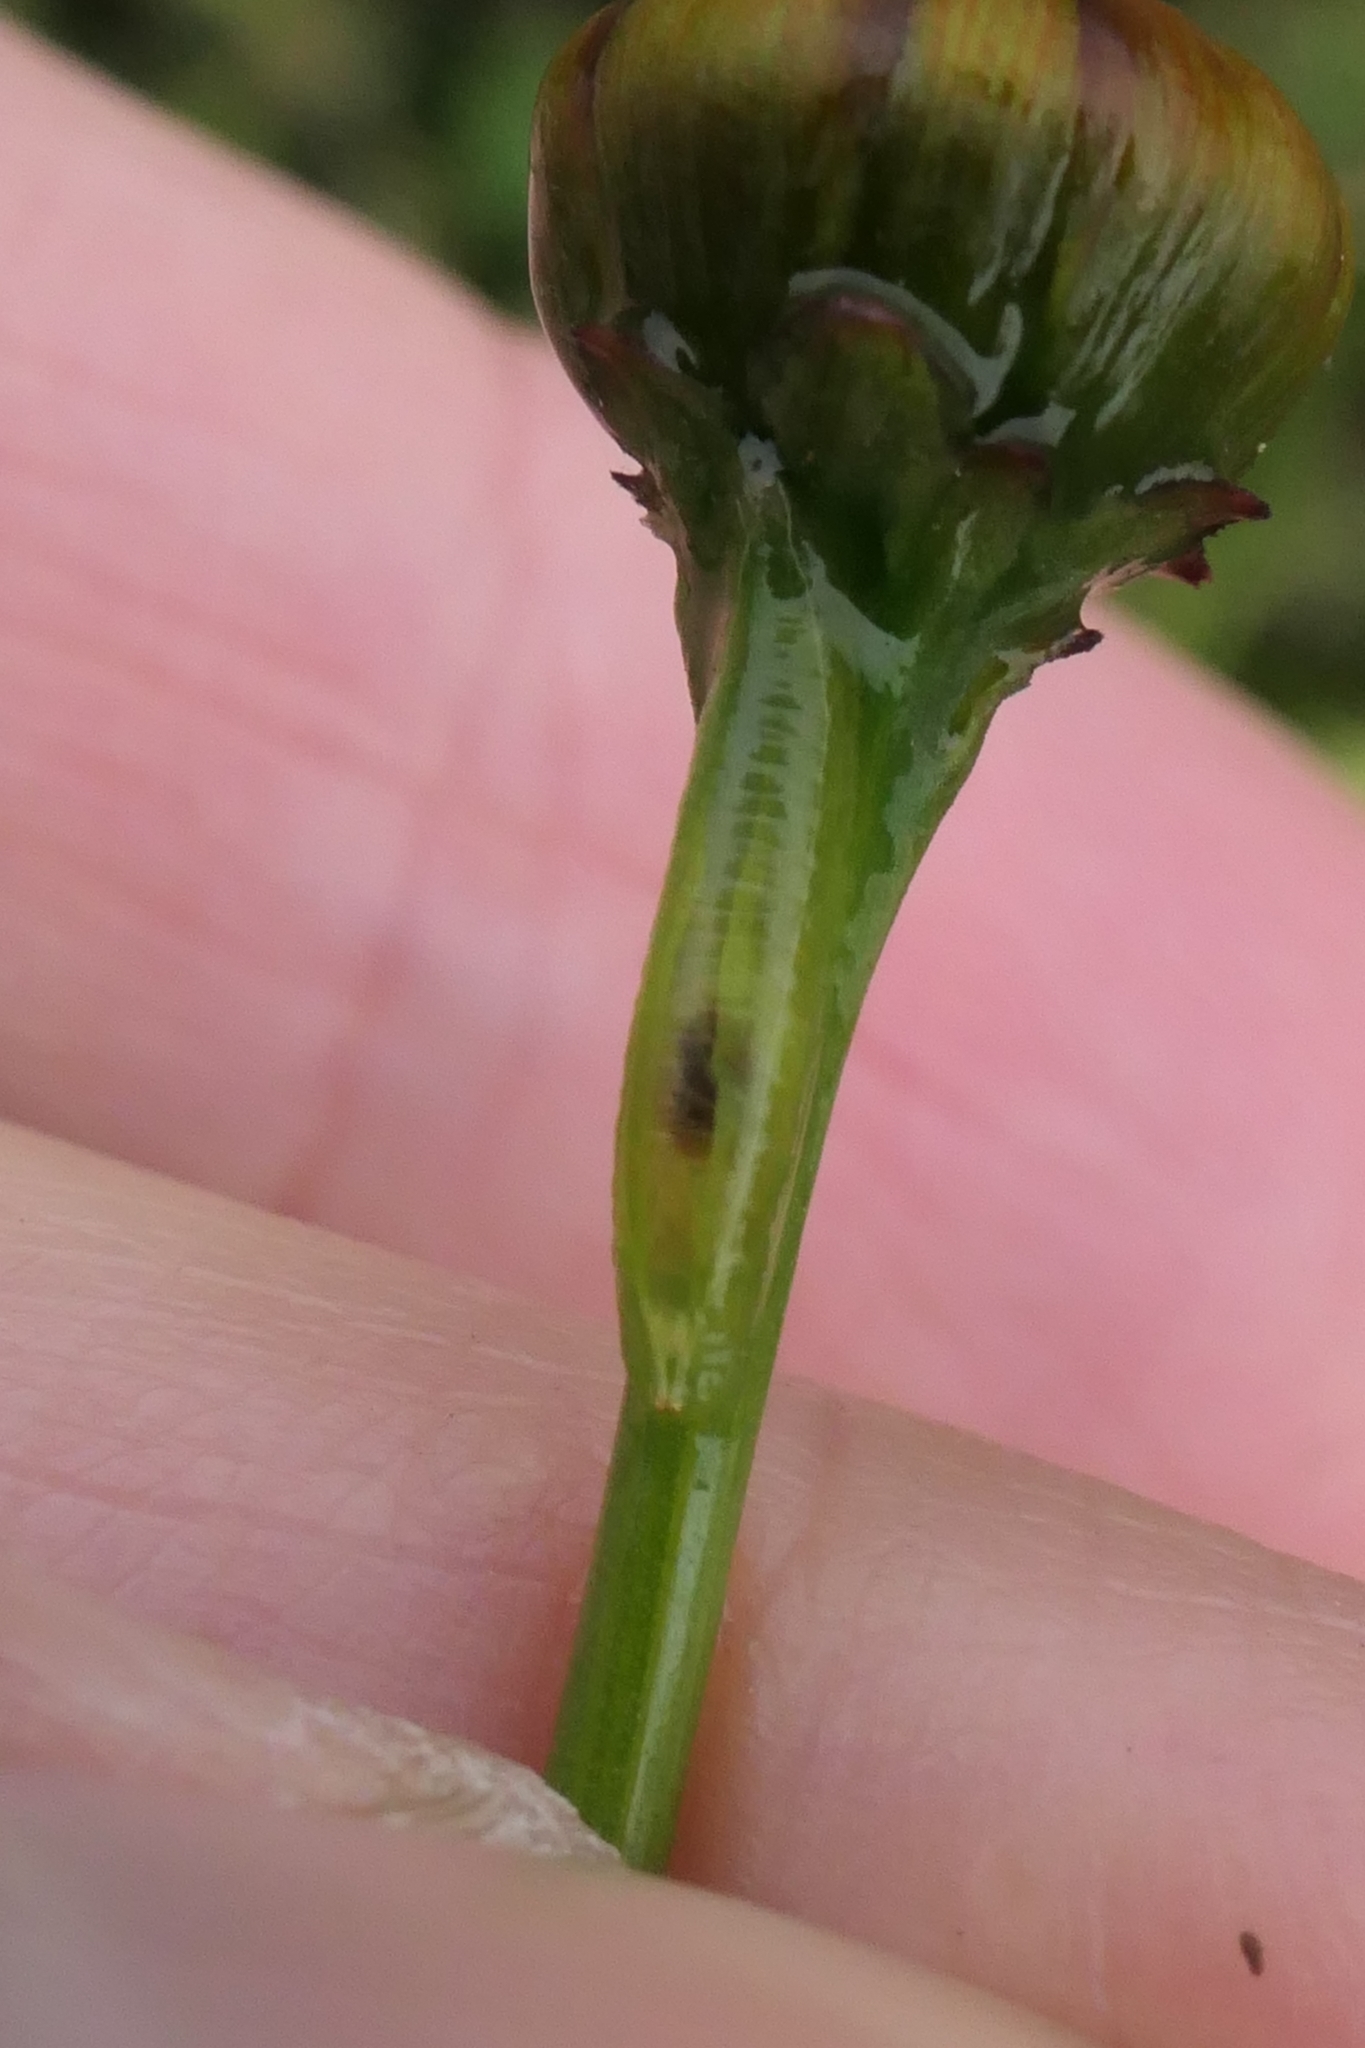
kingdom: Animalia
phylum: Arthropoda
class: Insecta
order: Diptera
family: Syrphidae
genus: Melangyna
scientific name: Melangyna novaezelandiae
